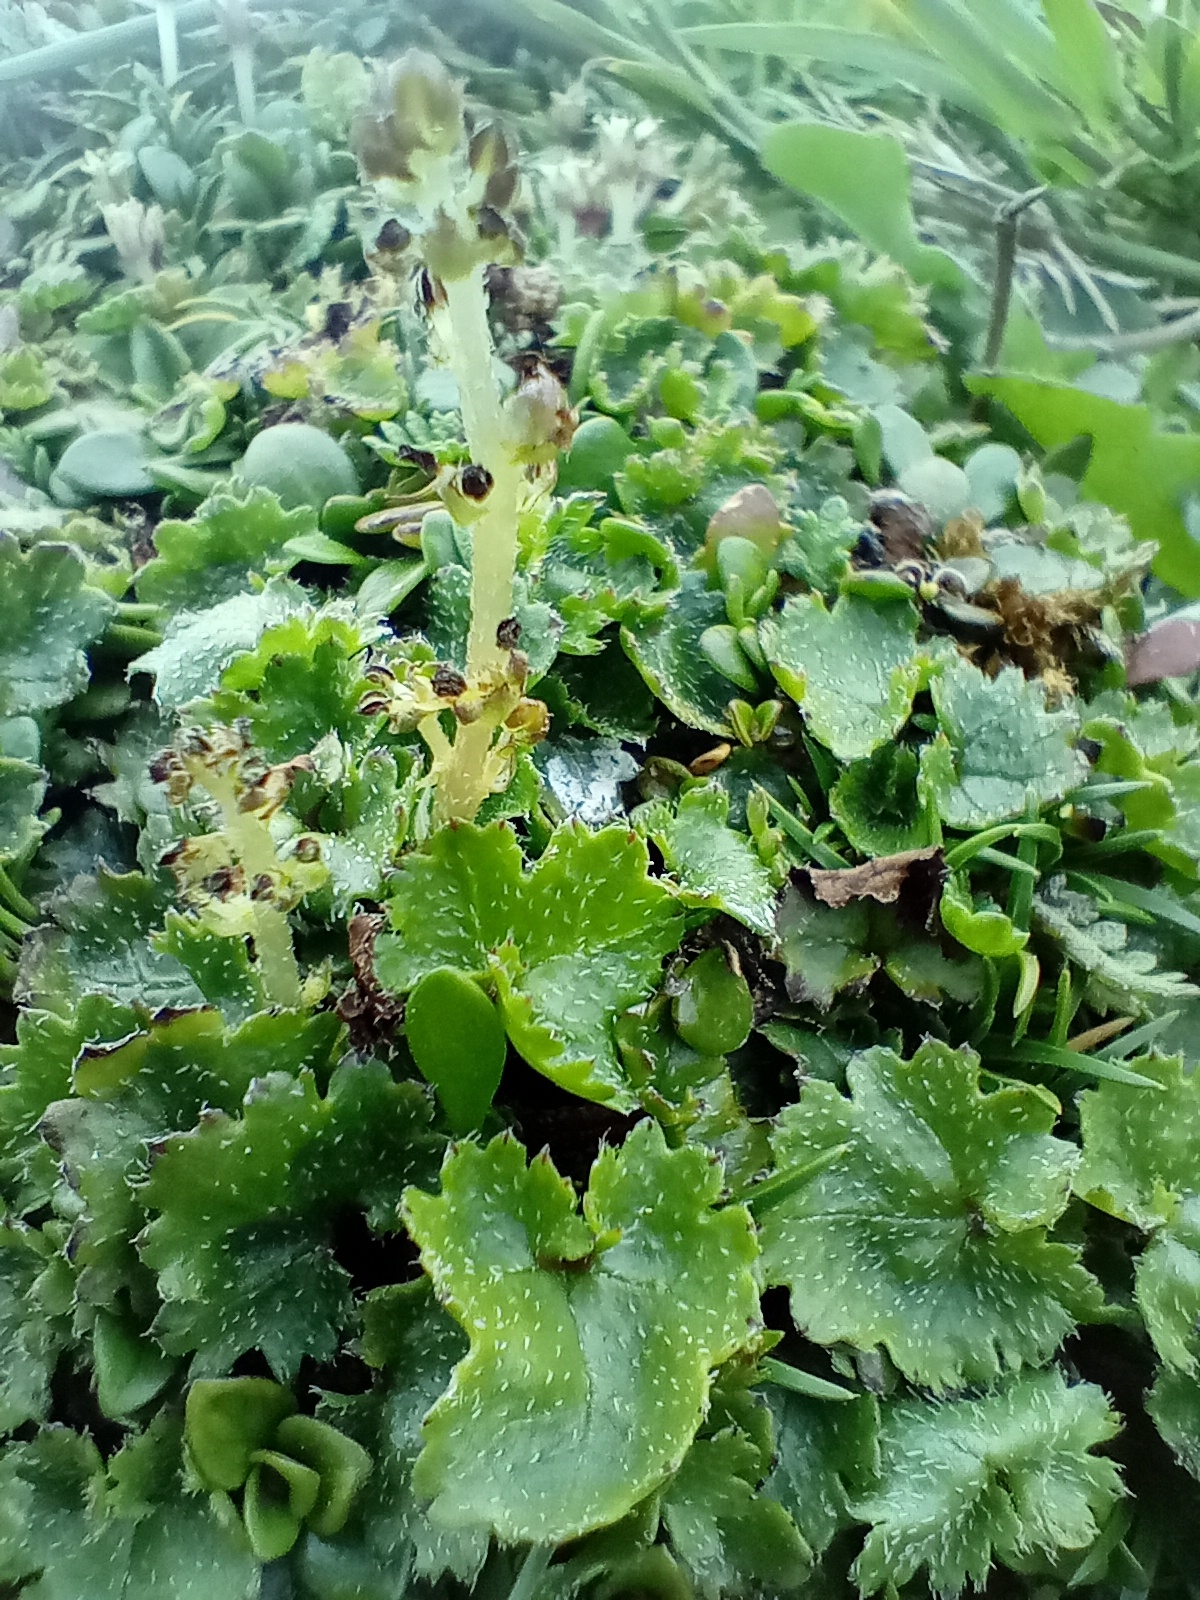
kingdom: Plantae
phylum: Tracheophyta
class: Magnoliopsida
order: Gunnerales
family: Gunneraceae
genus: Gunnera
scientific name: Gunnera monoica
